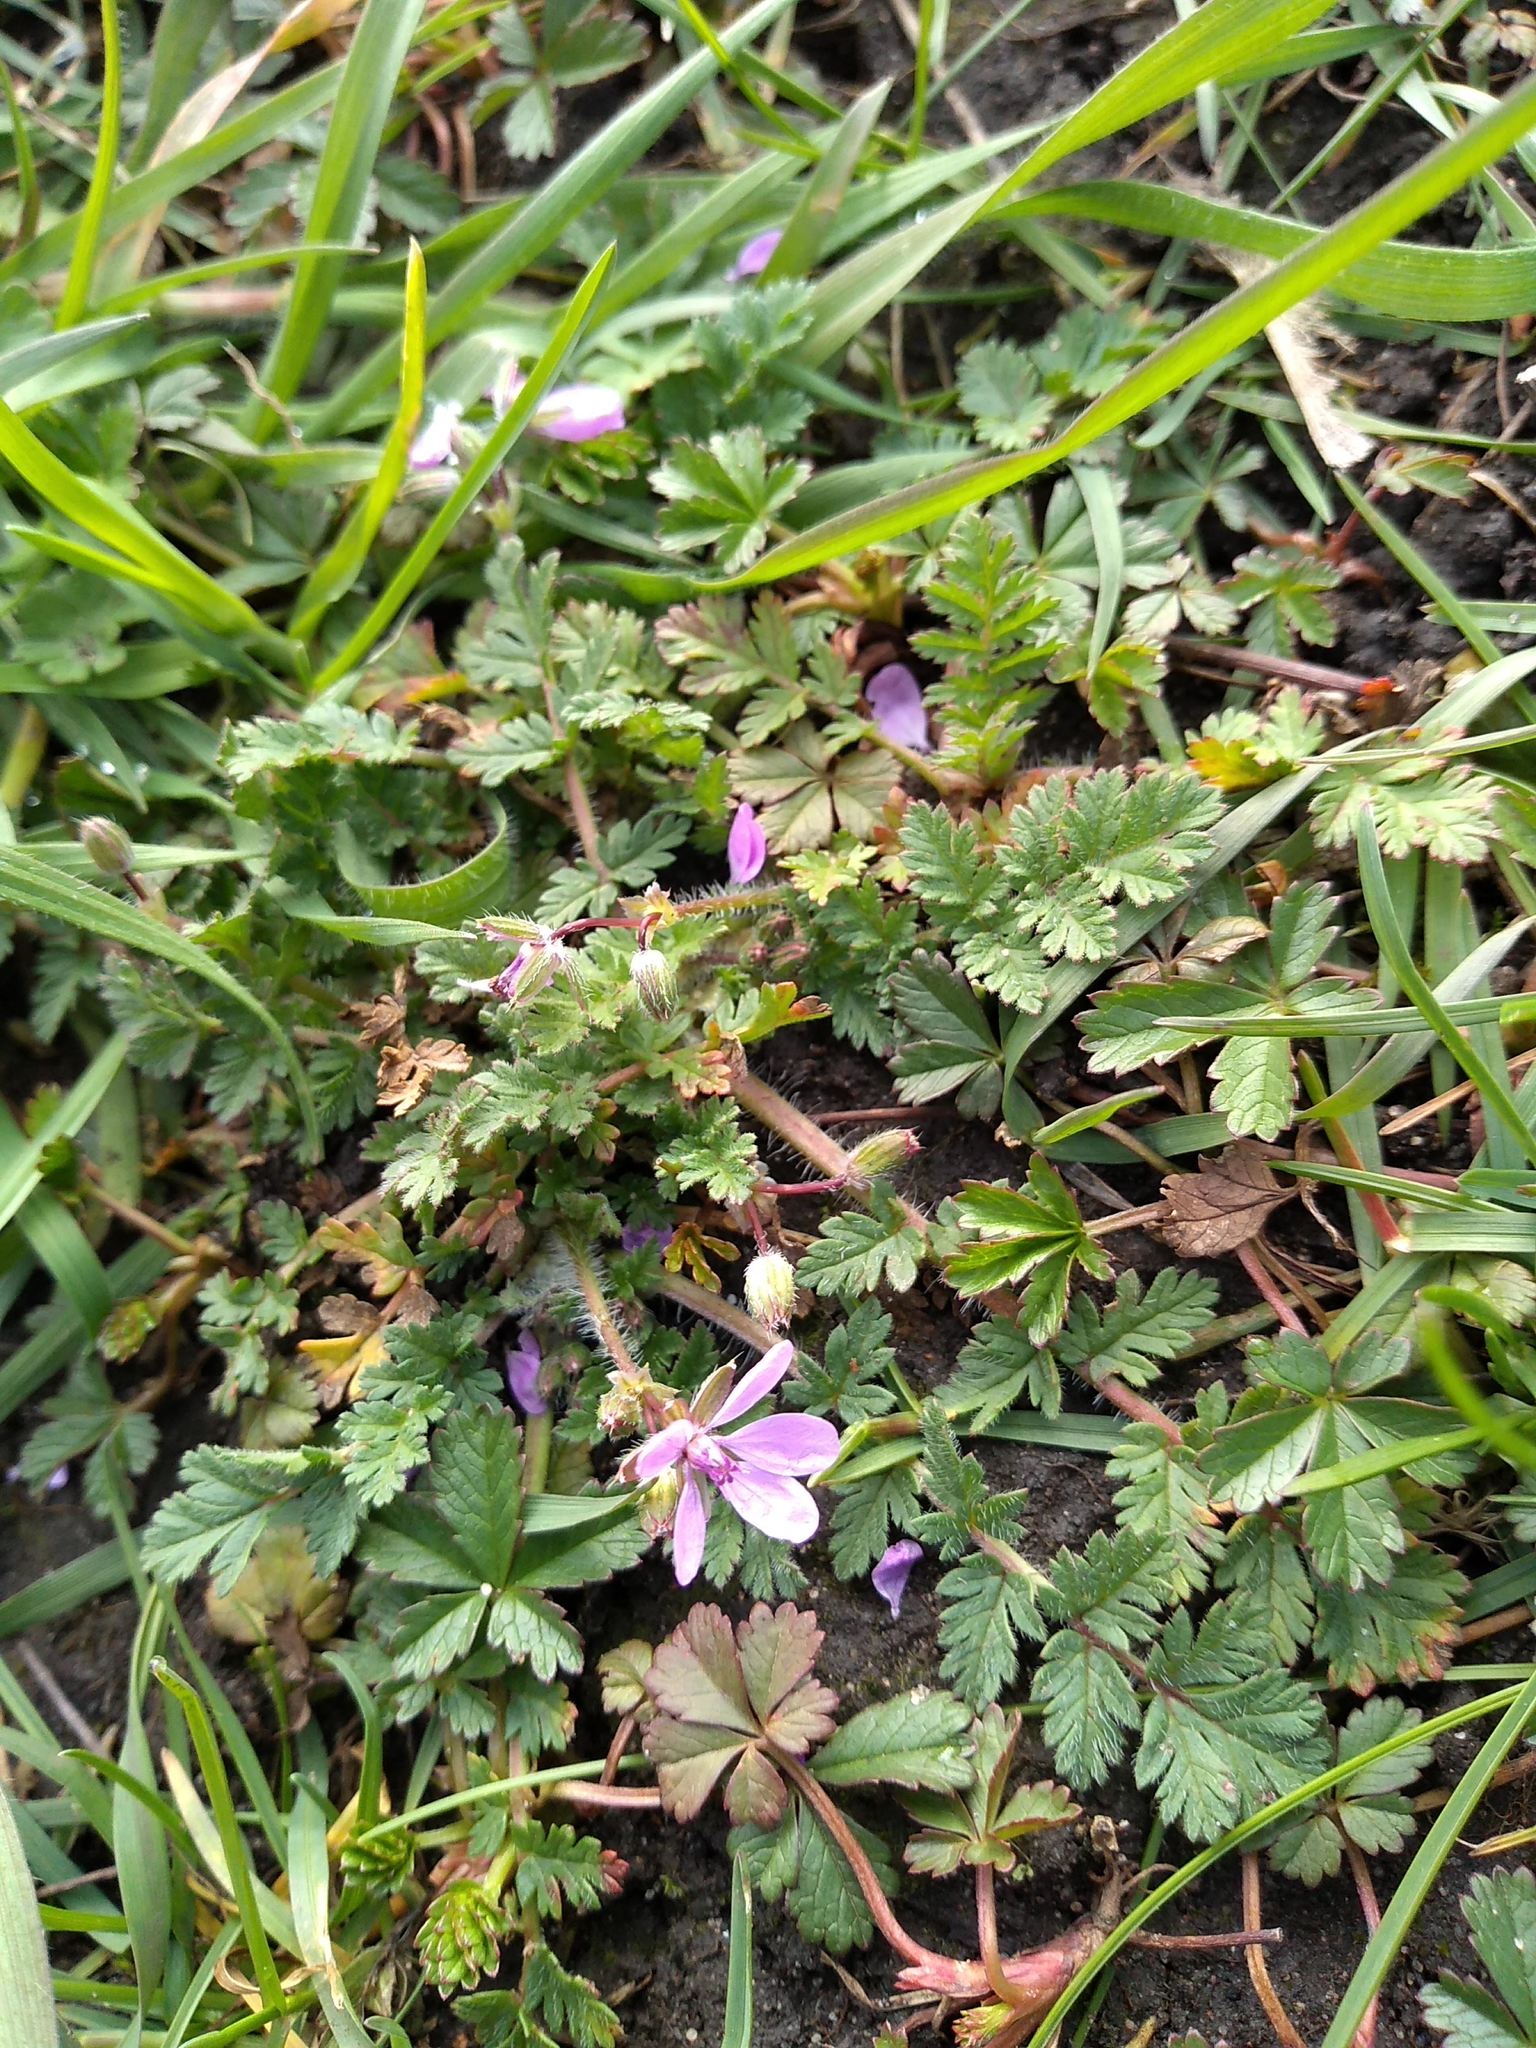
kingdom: Plantae
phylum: Tracheophyta
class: Magnoliopsida
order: Geraniales
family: Geraniaceae
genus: Erodium
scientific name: Erodium cicutarium
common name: Common stork's-bill
